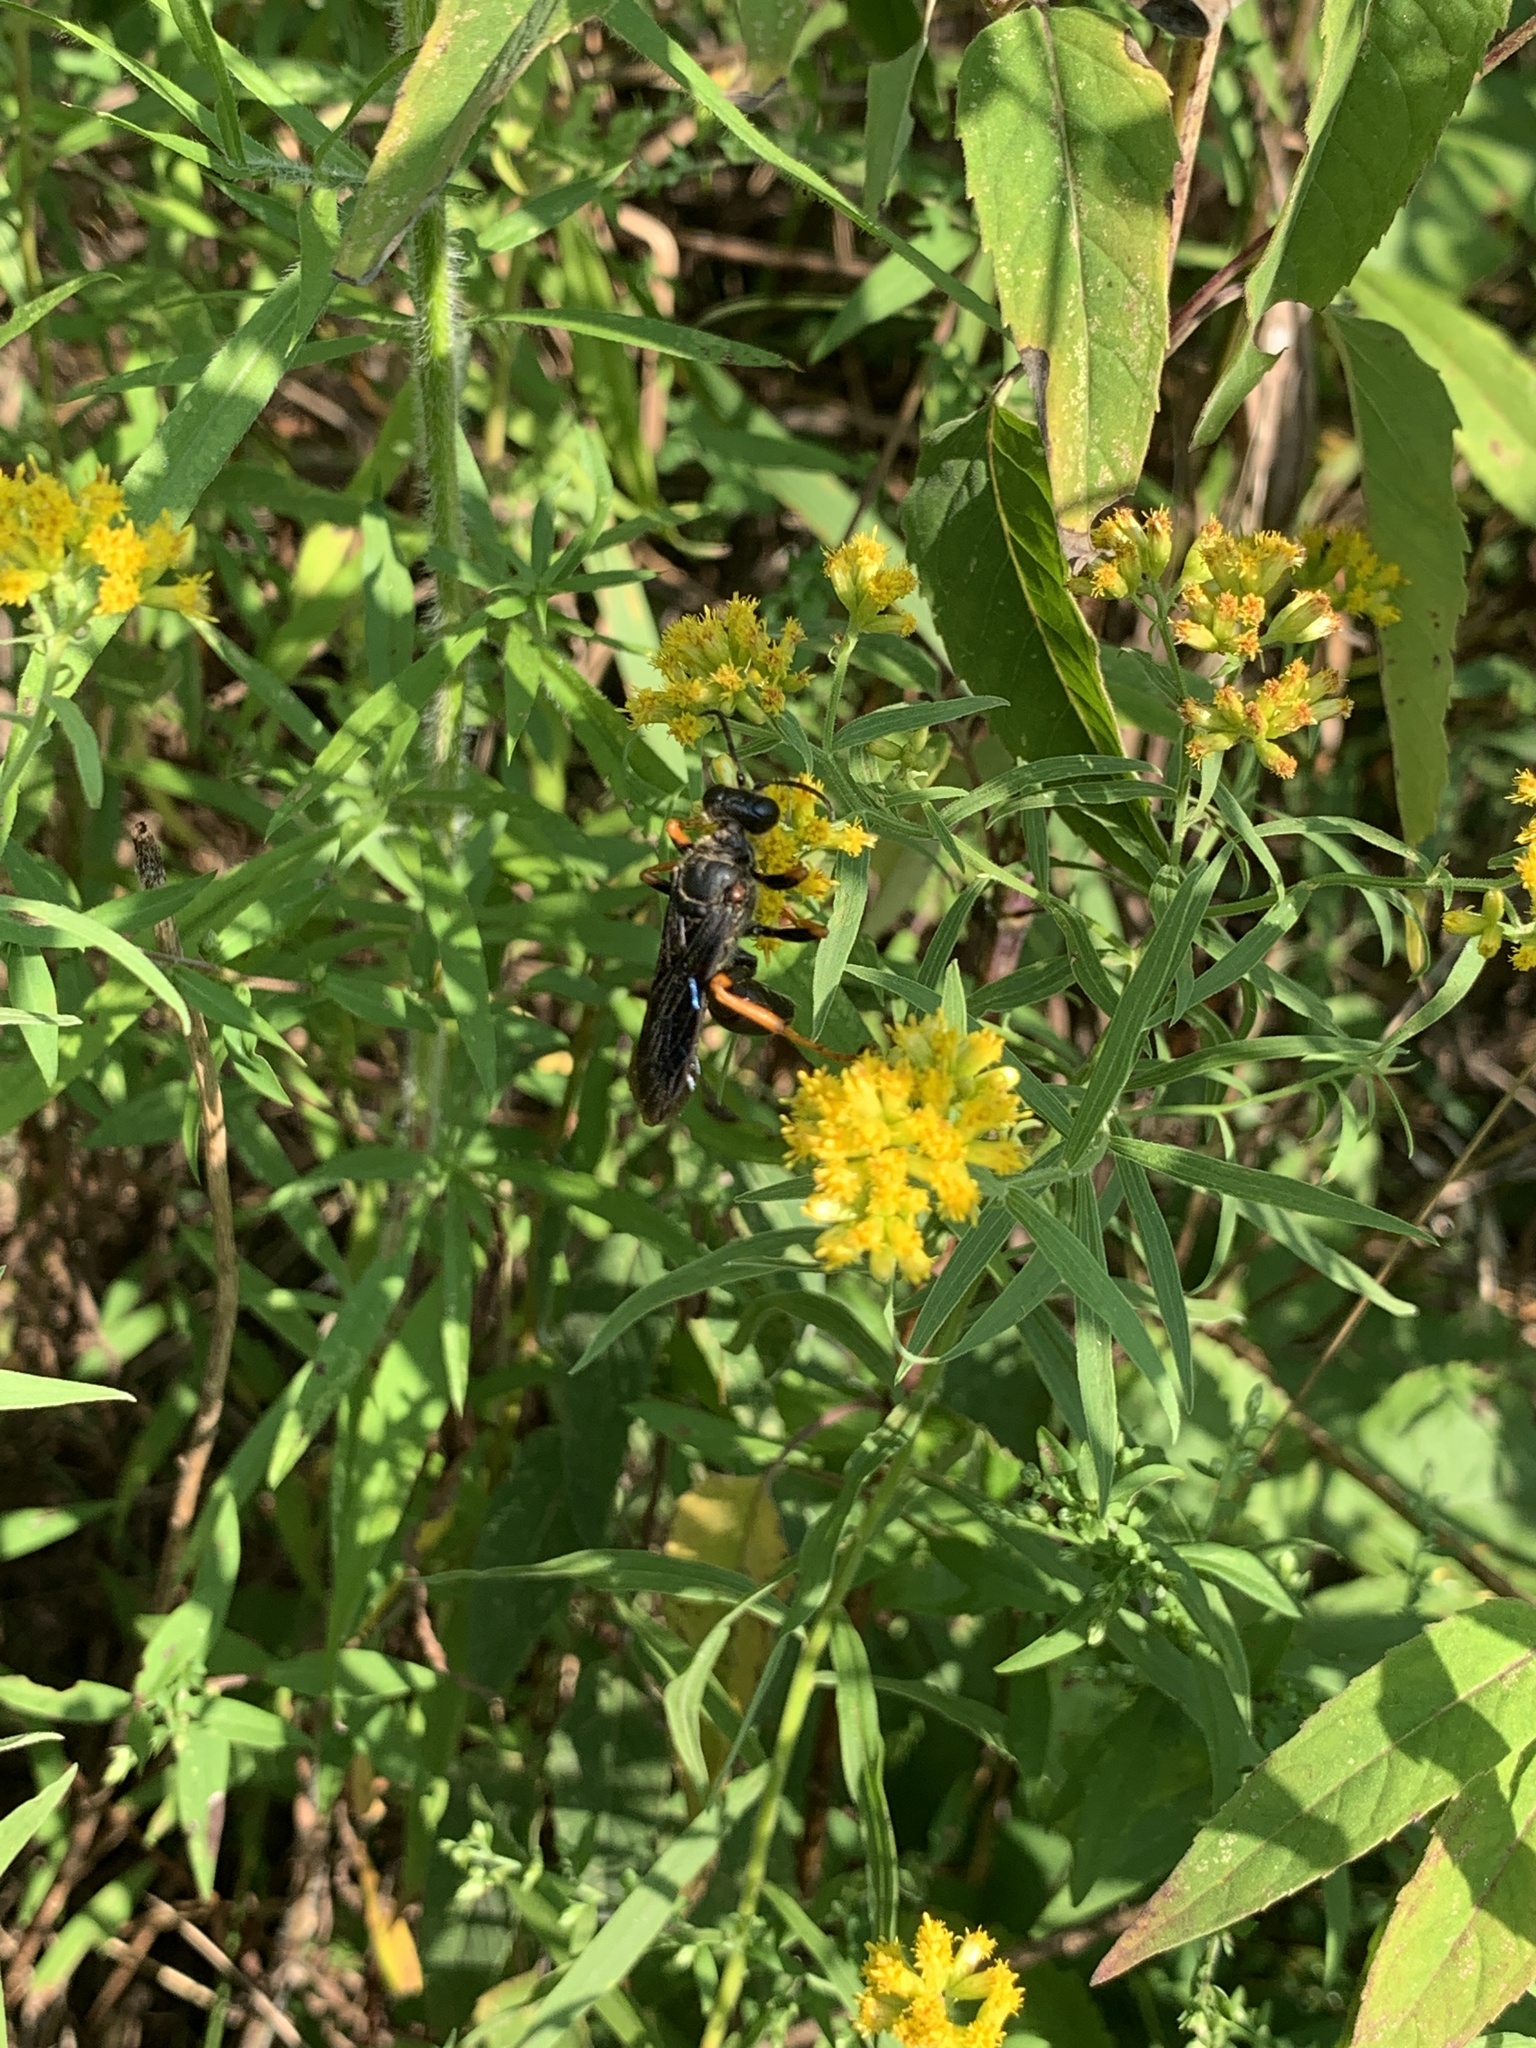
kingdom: Animalia
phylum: Arthropoda
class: Insecta
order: Hymenoptera
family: Sphecidae
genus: Sphex
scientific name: Sphex nudus
